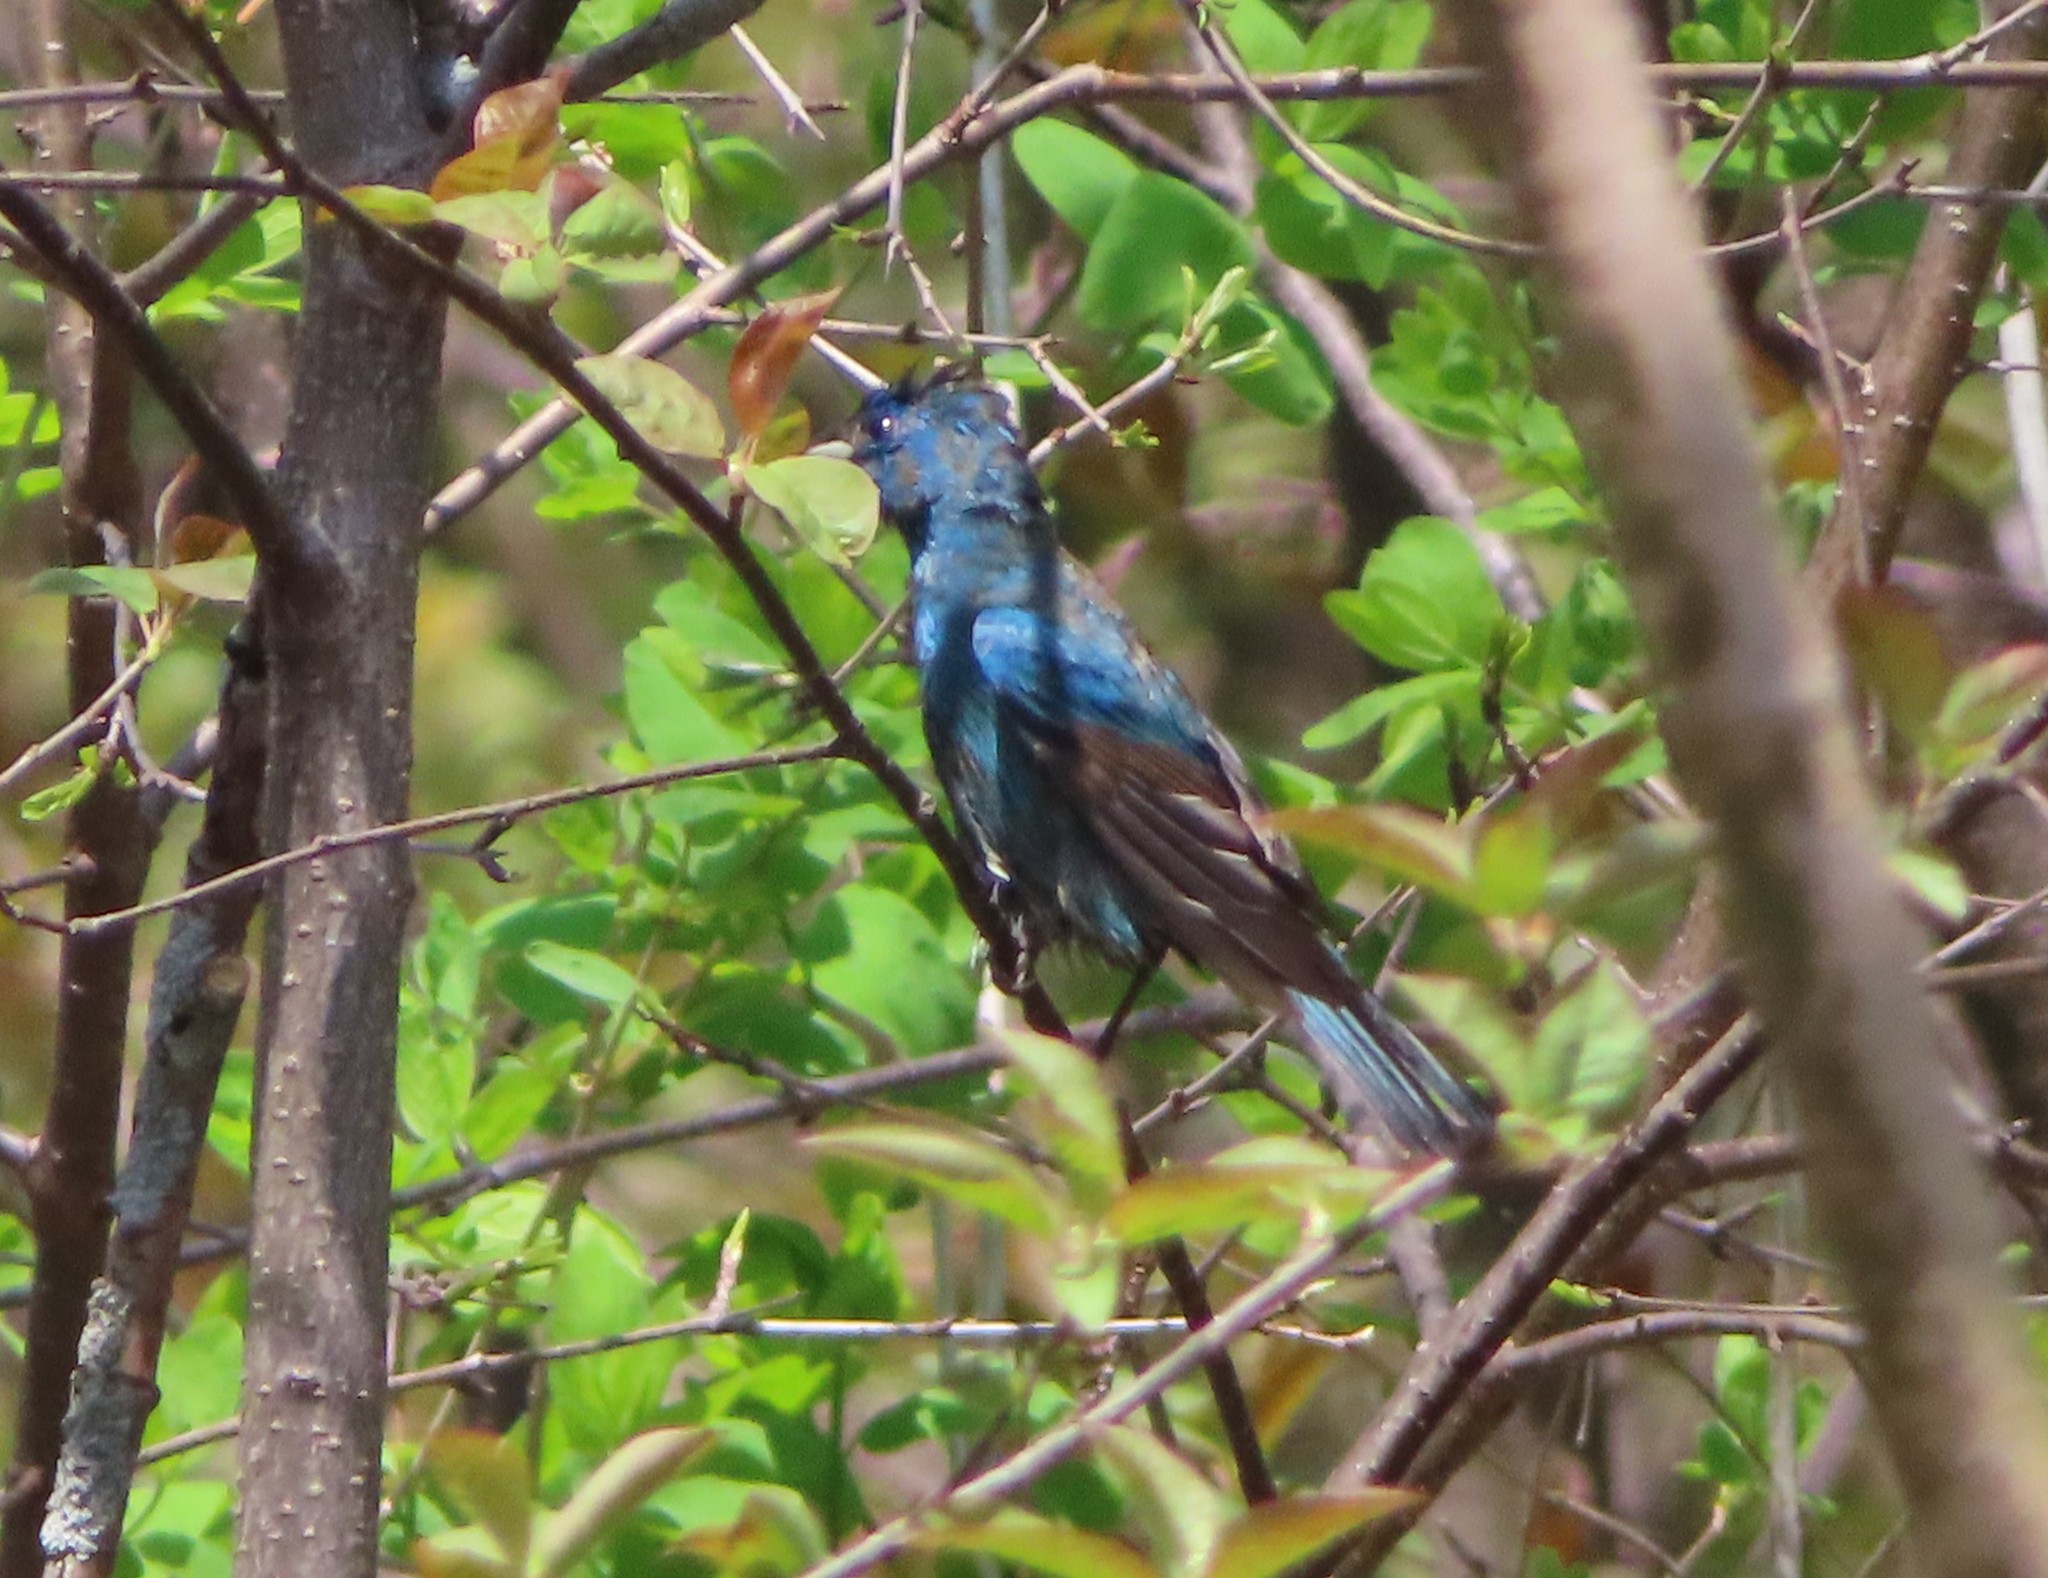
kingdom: Animalia
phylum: Chordata
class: Aves
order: Passeriformes
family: Cardinalidae
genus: Passerina
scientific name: Passerina cyanea
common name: Indigo bunting
